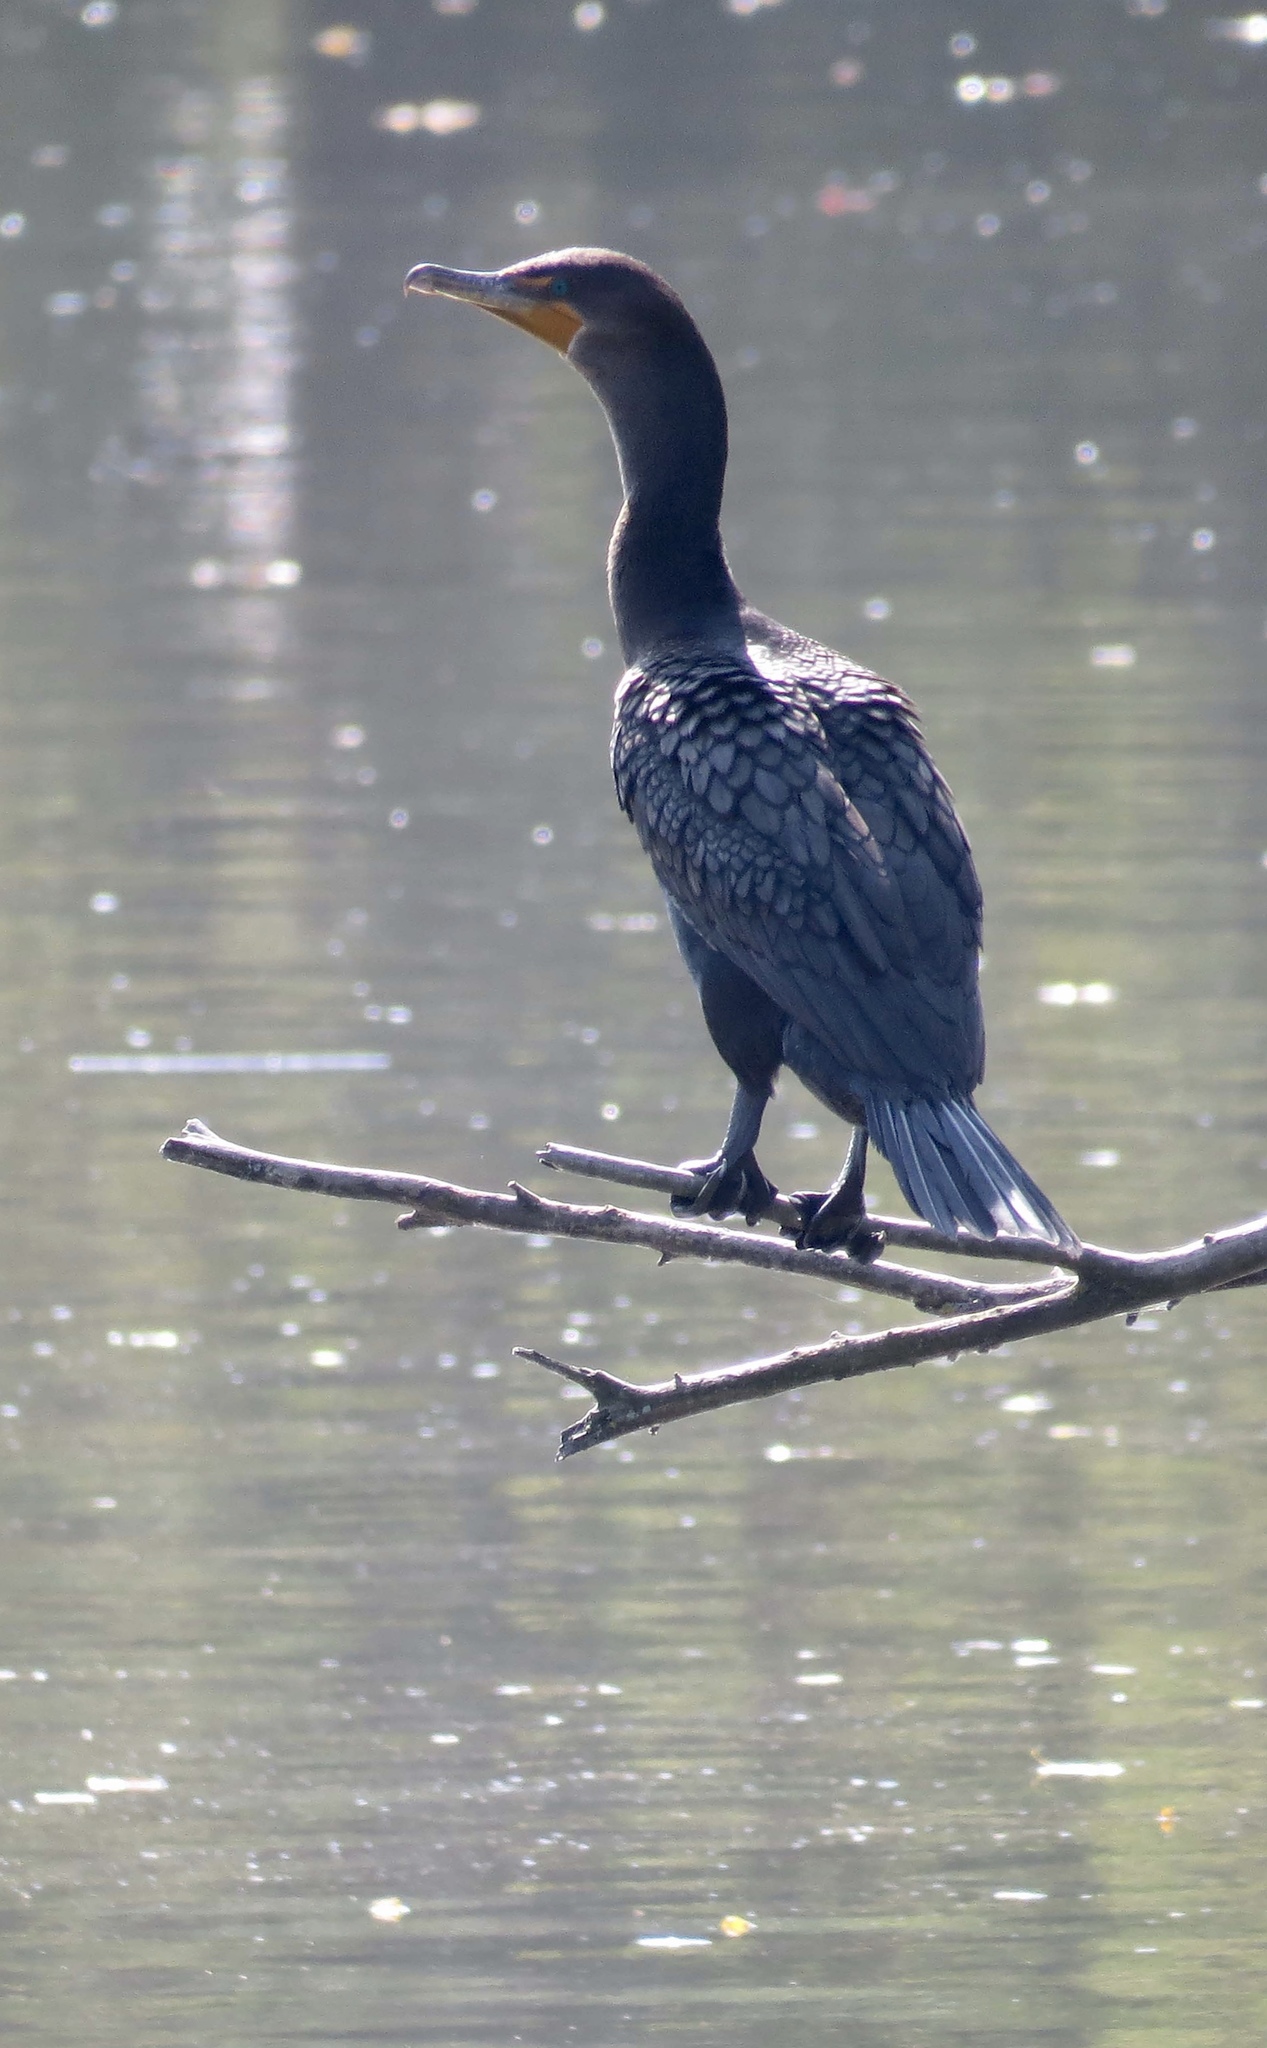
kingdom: Animalia
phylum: Chordata
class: Aves
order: Suliformes
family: Phalacrocoracidae
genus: Phalacrocorax
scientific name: Phalacrocorax auritus
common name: Double-crested cormorant
